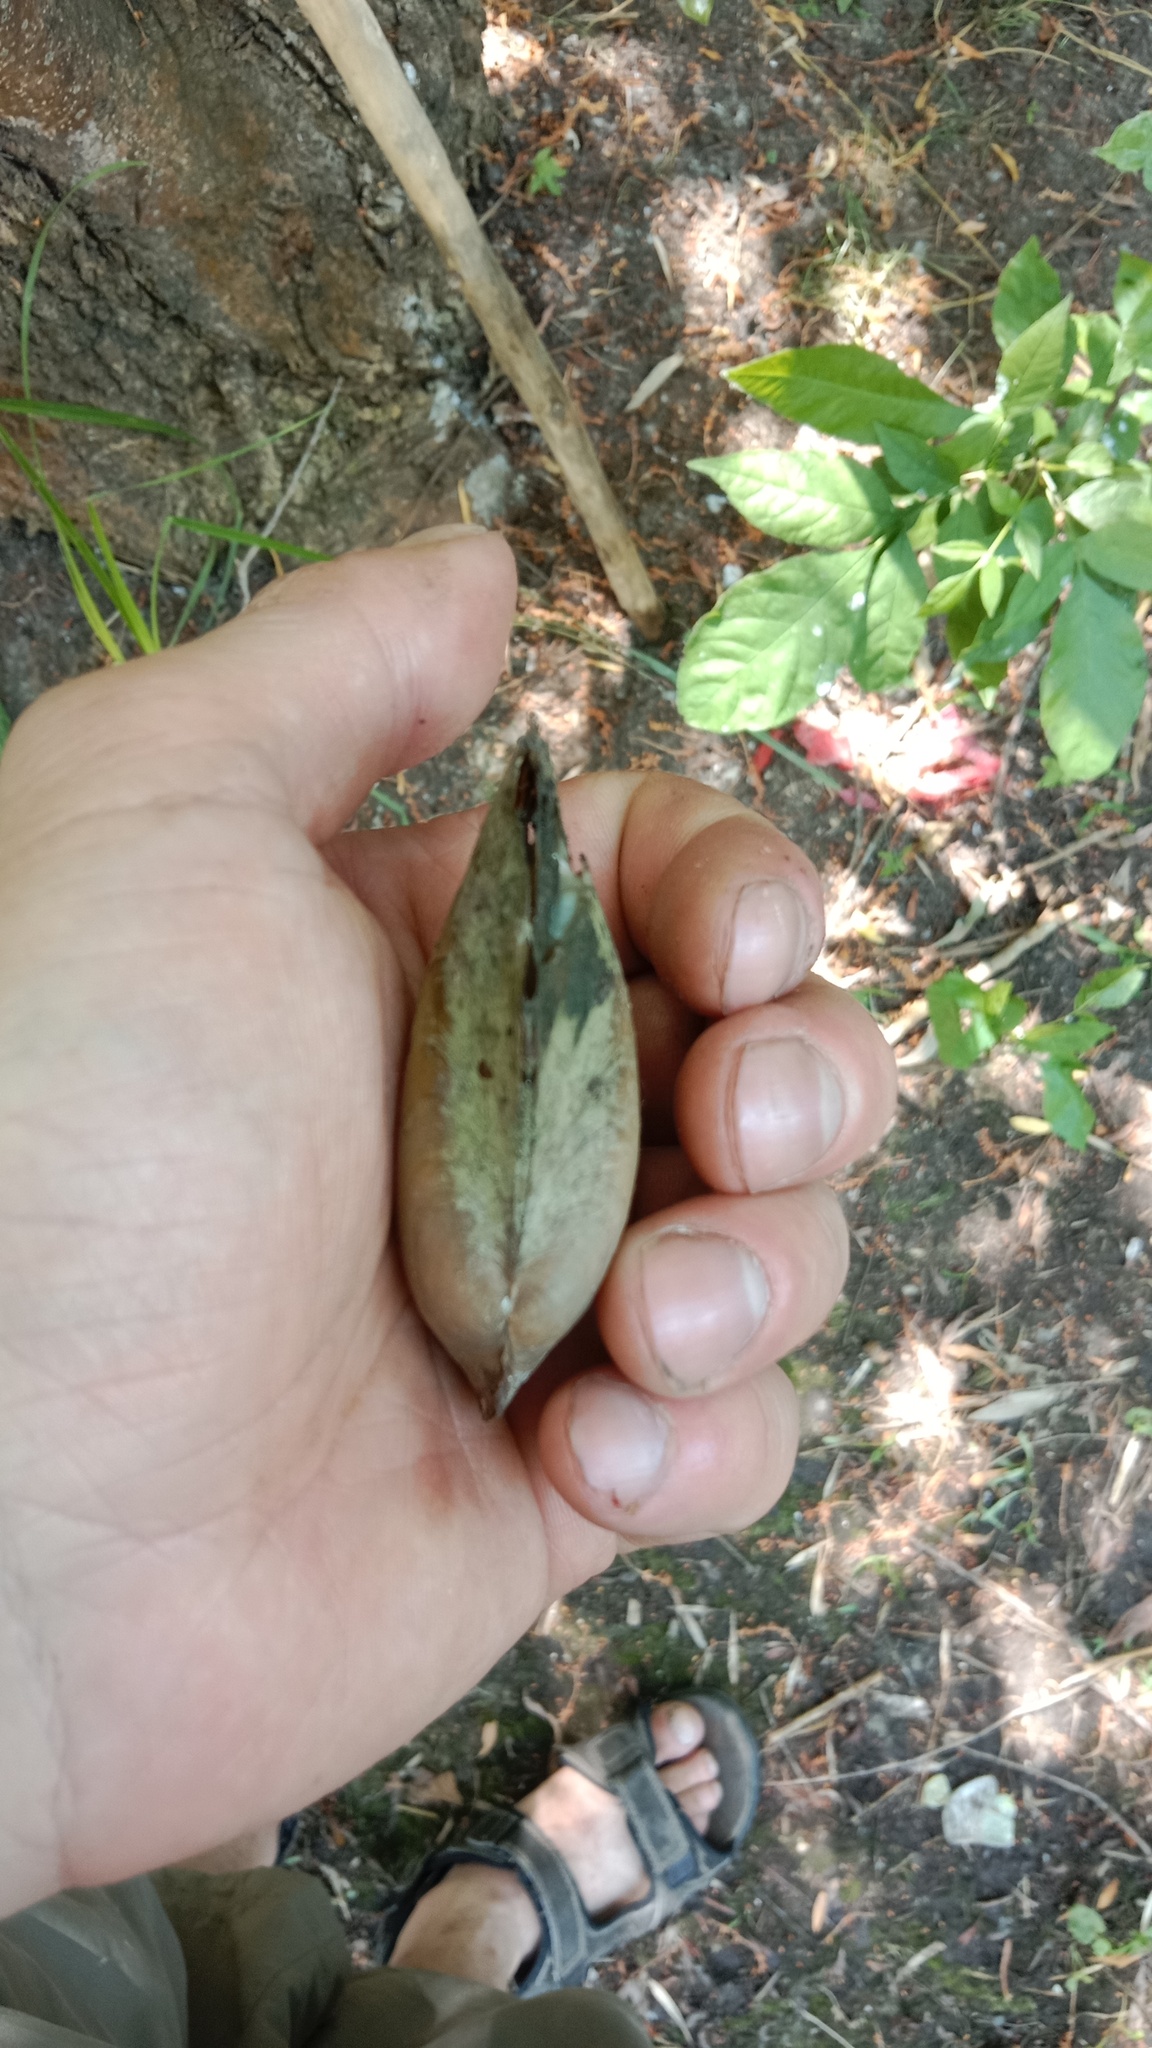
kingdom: Animalia
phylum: Mollusca
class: Bivalvia
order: Unionida
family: Unionidae
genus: Anodonta
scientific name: Anodonta cygnea
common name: Swan mussel
